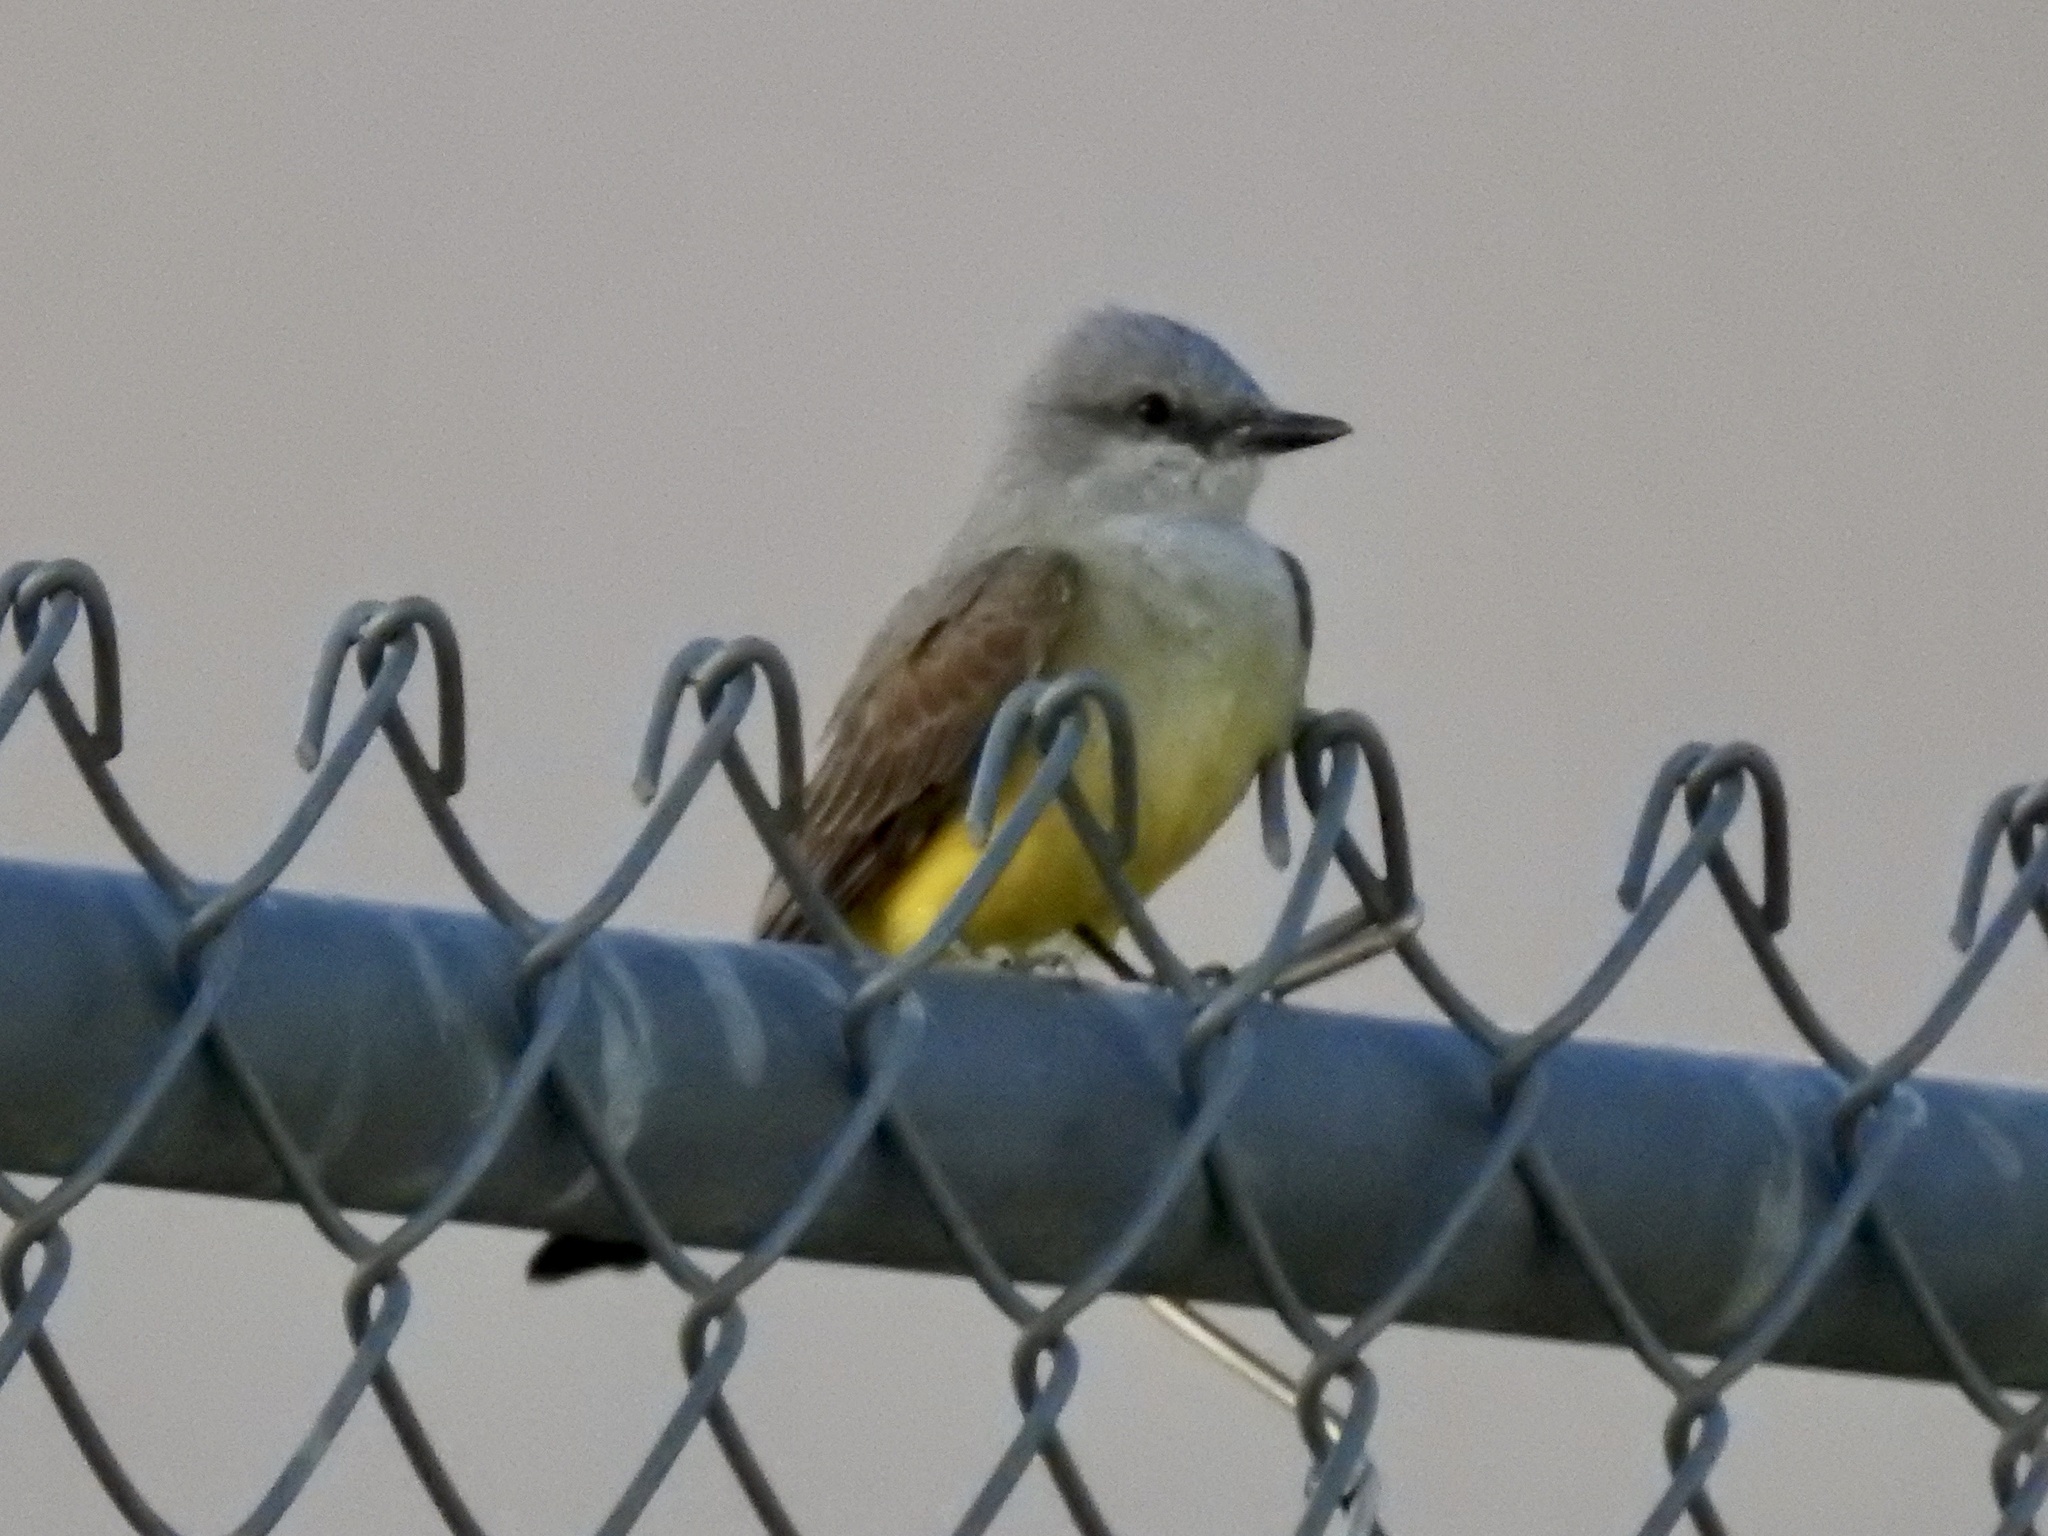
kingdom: Animalia
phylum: Chordata
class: Aves
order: Passeriformes
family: Tyrannidae
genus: Tyrannus
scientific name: Tyrannus verticalis
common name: Western kingbird
